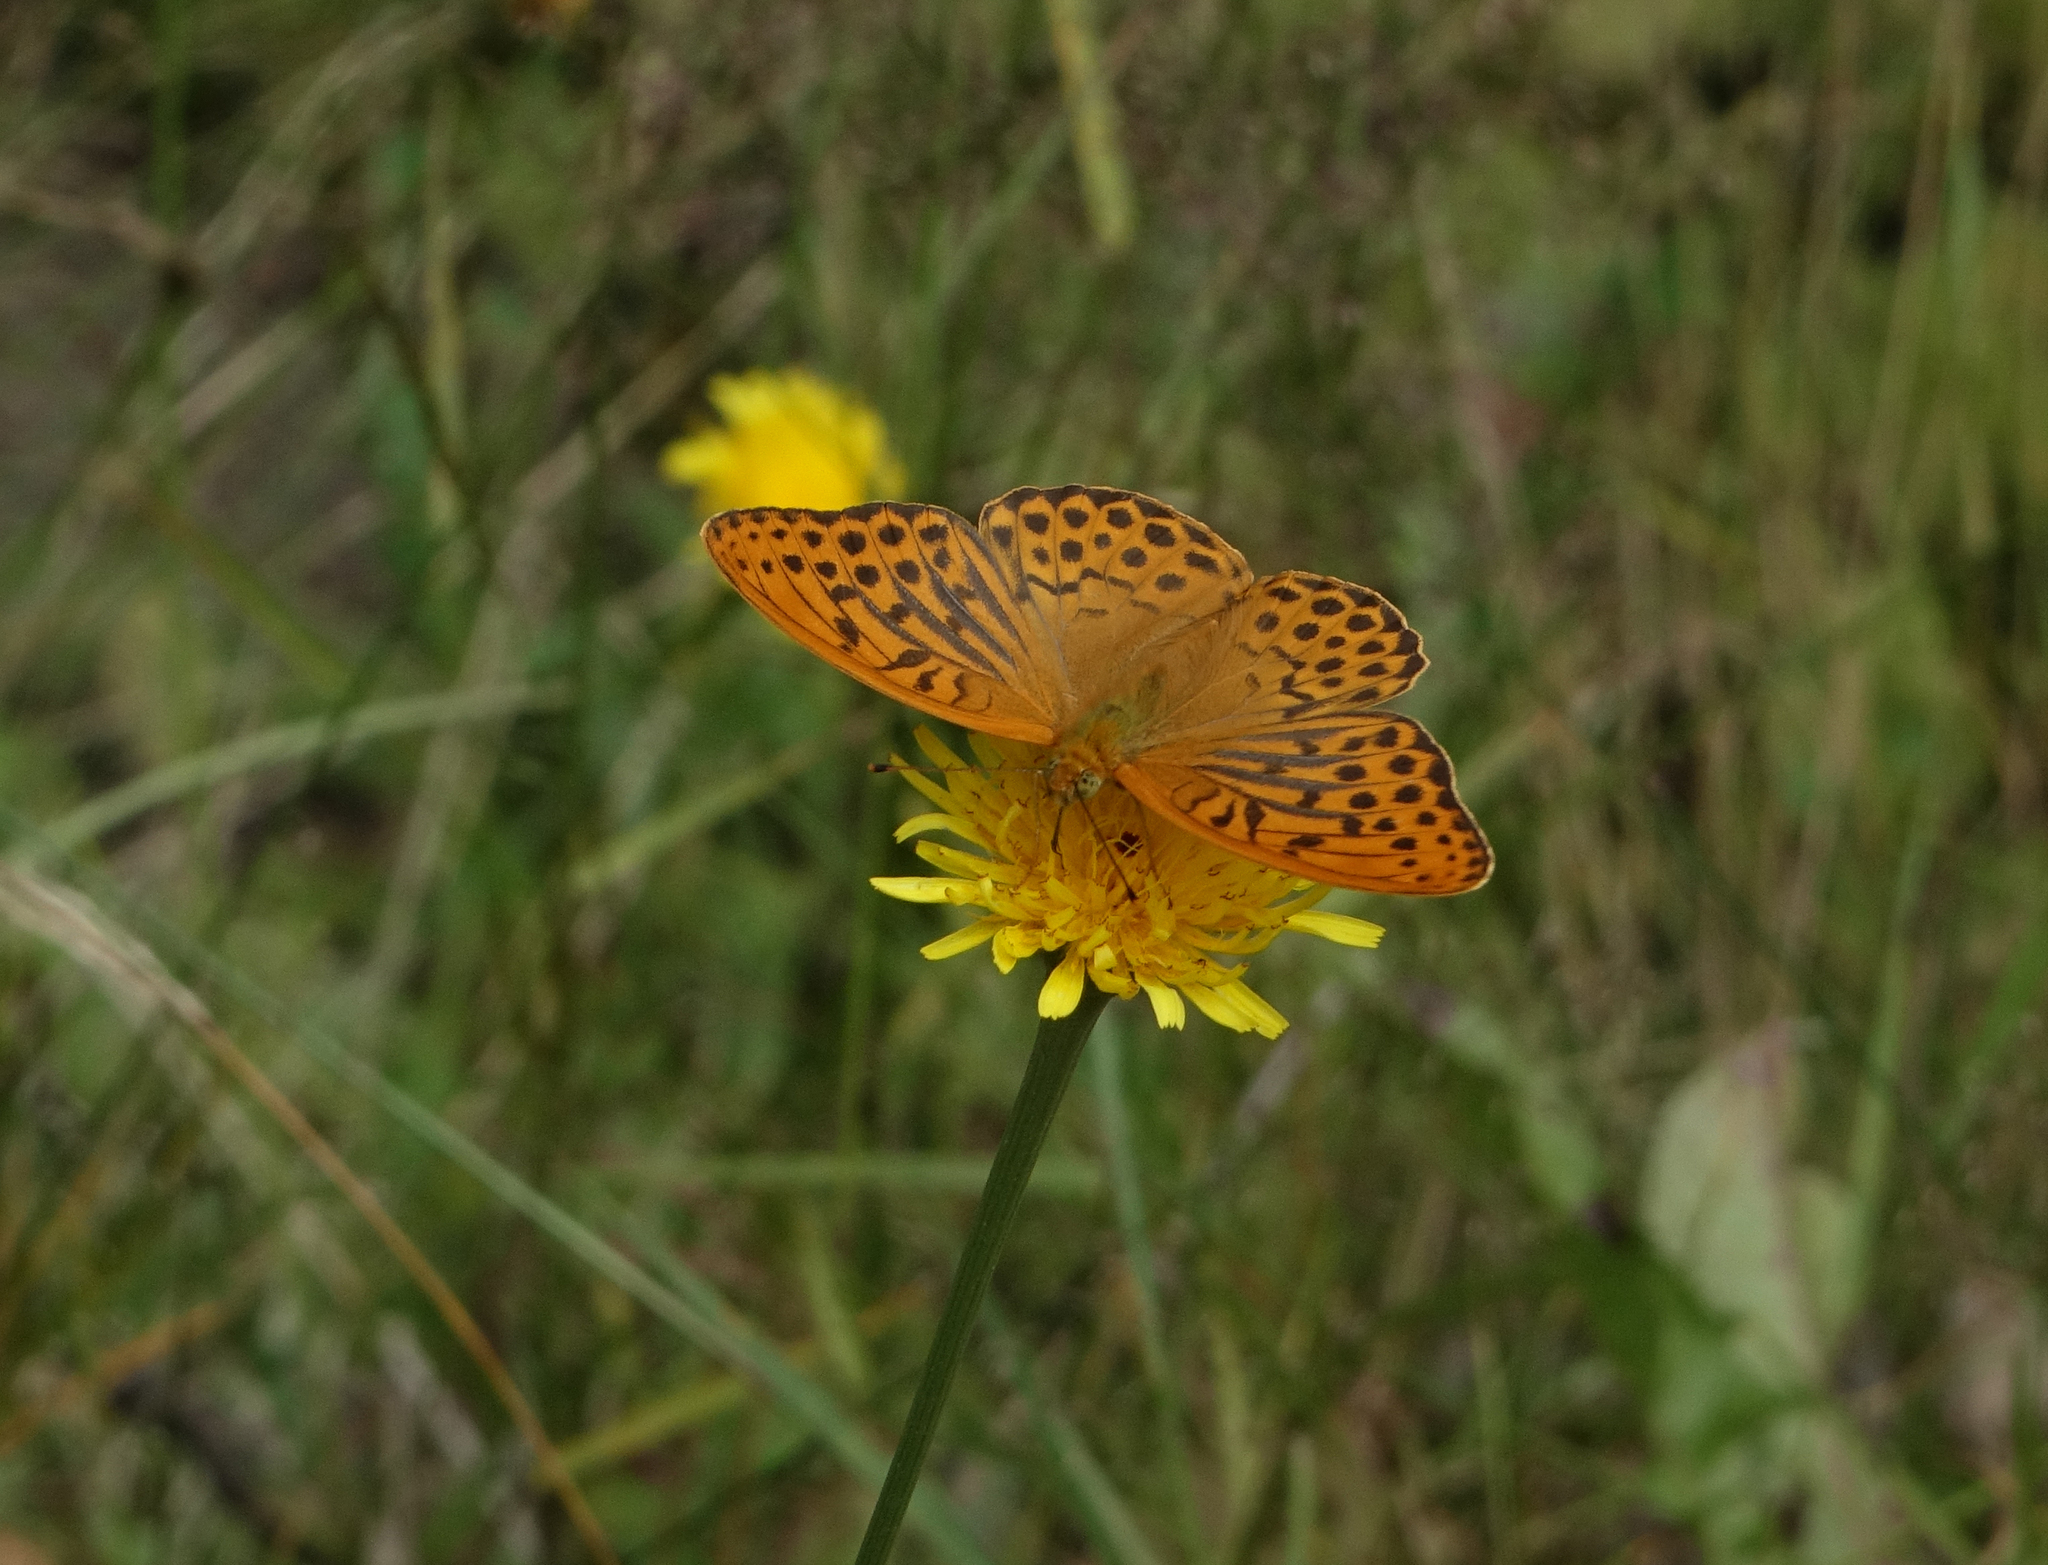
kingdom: Animalia
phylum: Arthropoda
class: Insecta
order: Lepidoptera
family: Nymphalidae
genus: Argynnis
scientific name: Argynnis paphia
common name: Silver-washed fritillary
